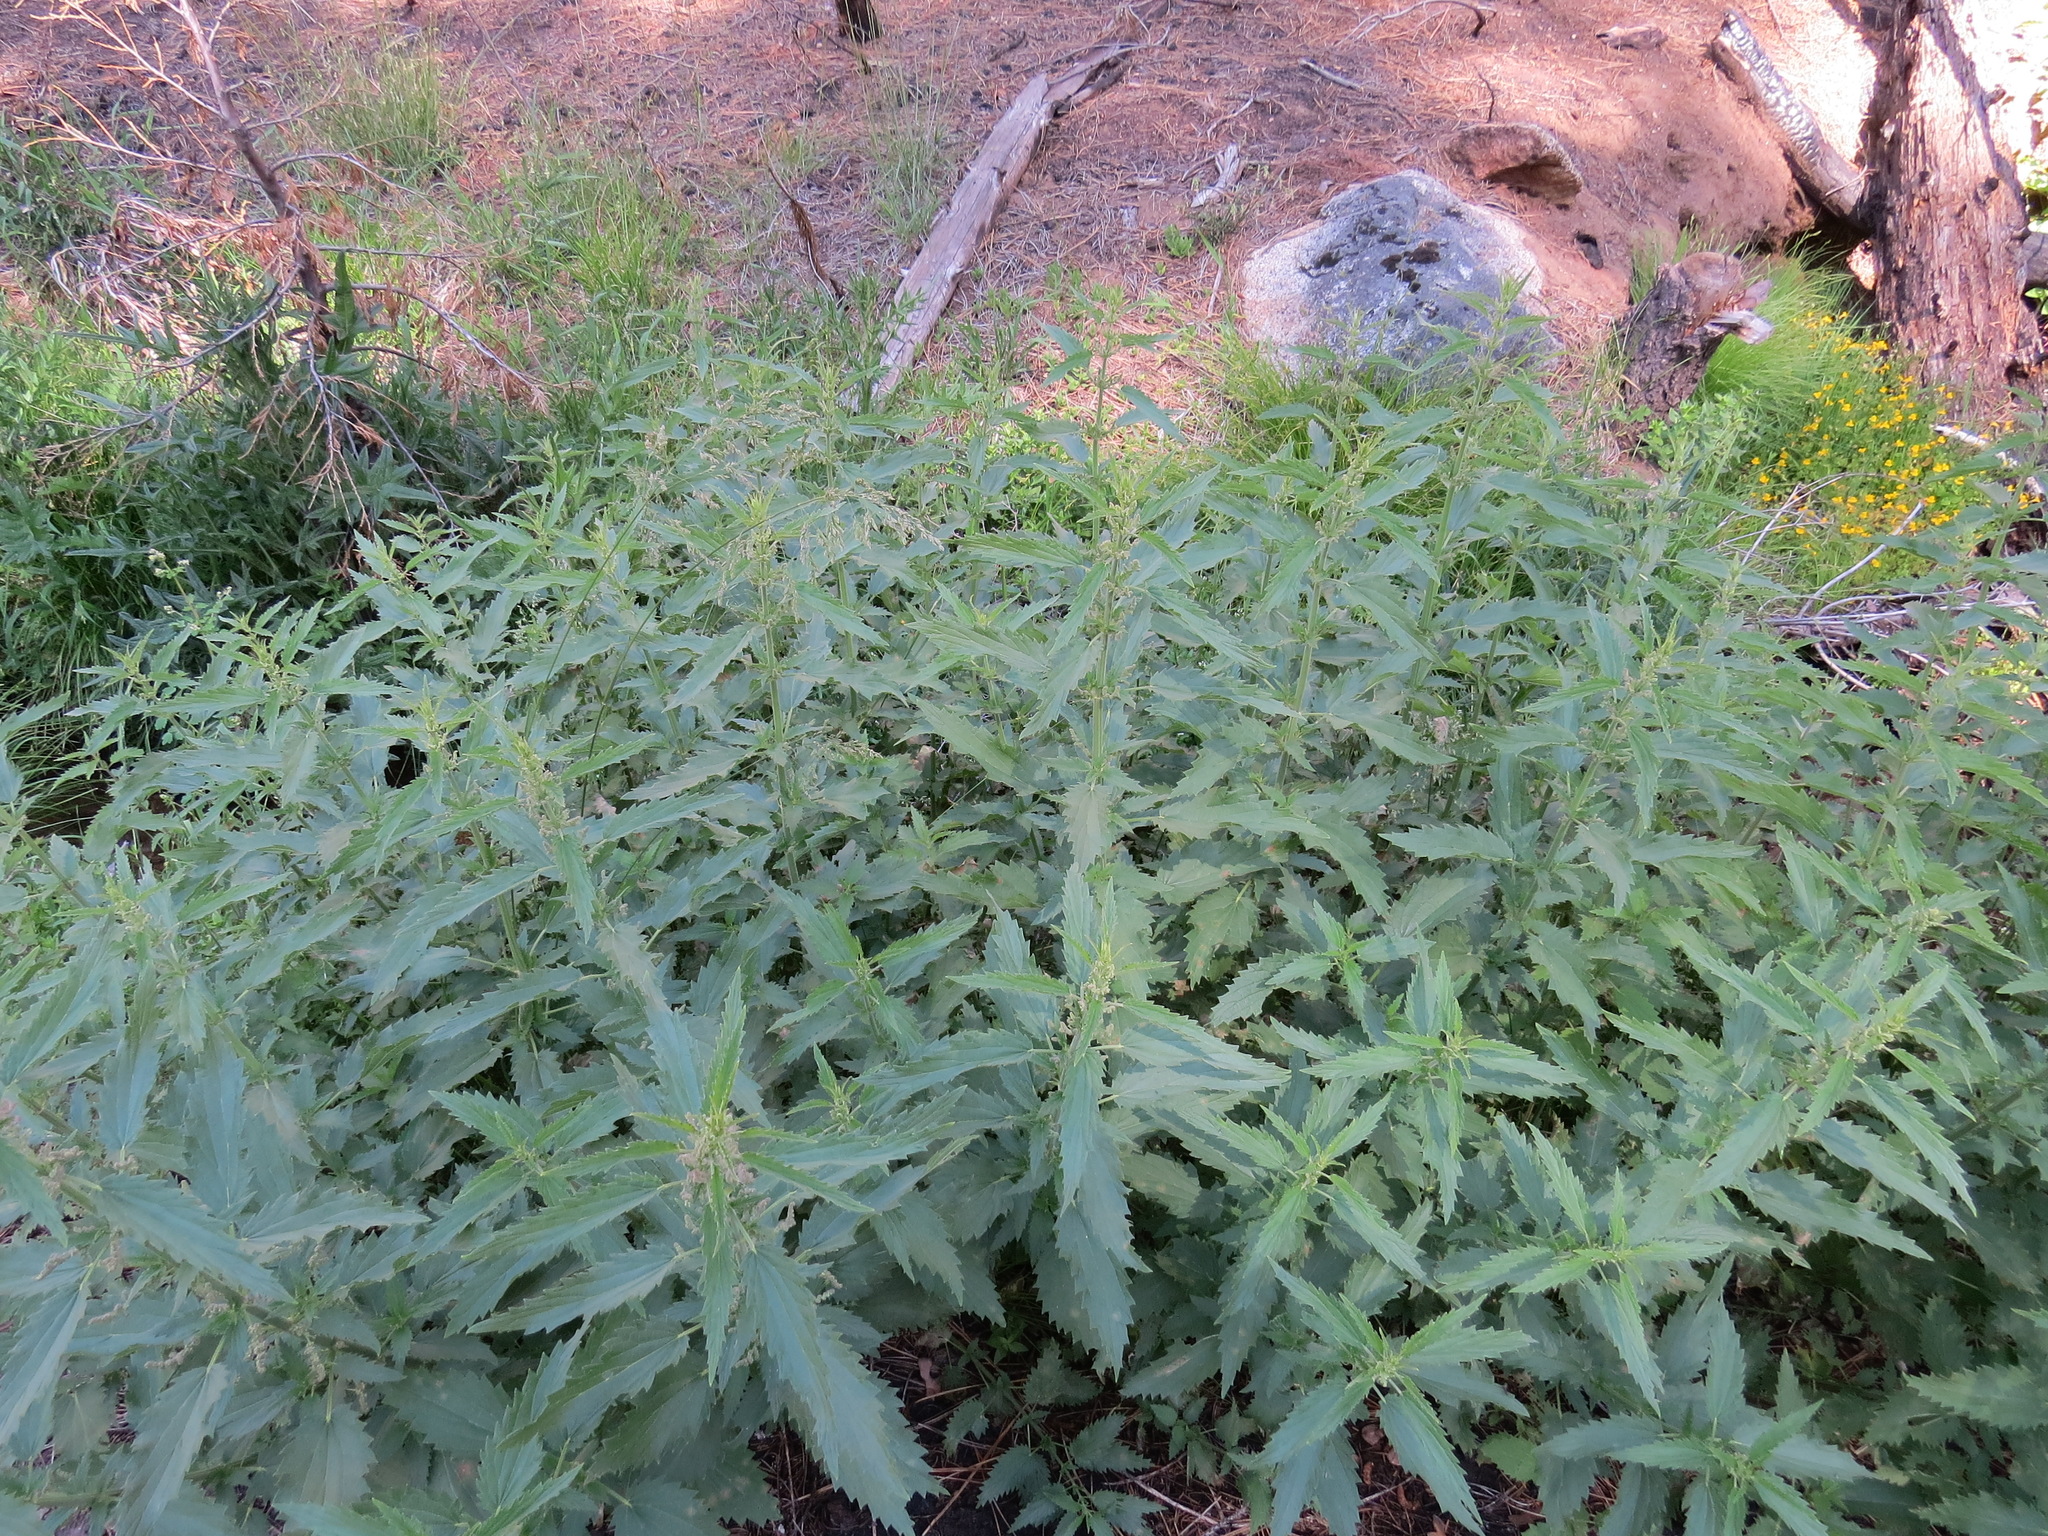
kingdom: Plantae
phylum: Tracheophyta
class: Magnoliopsida
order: Rosales
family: Urticaceae
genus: Urtica
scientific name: Urtica dioica
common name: Common nettle
